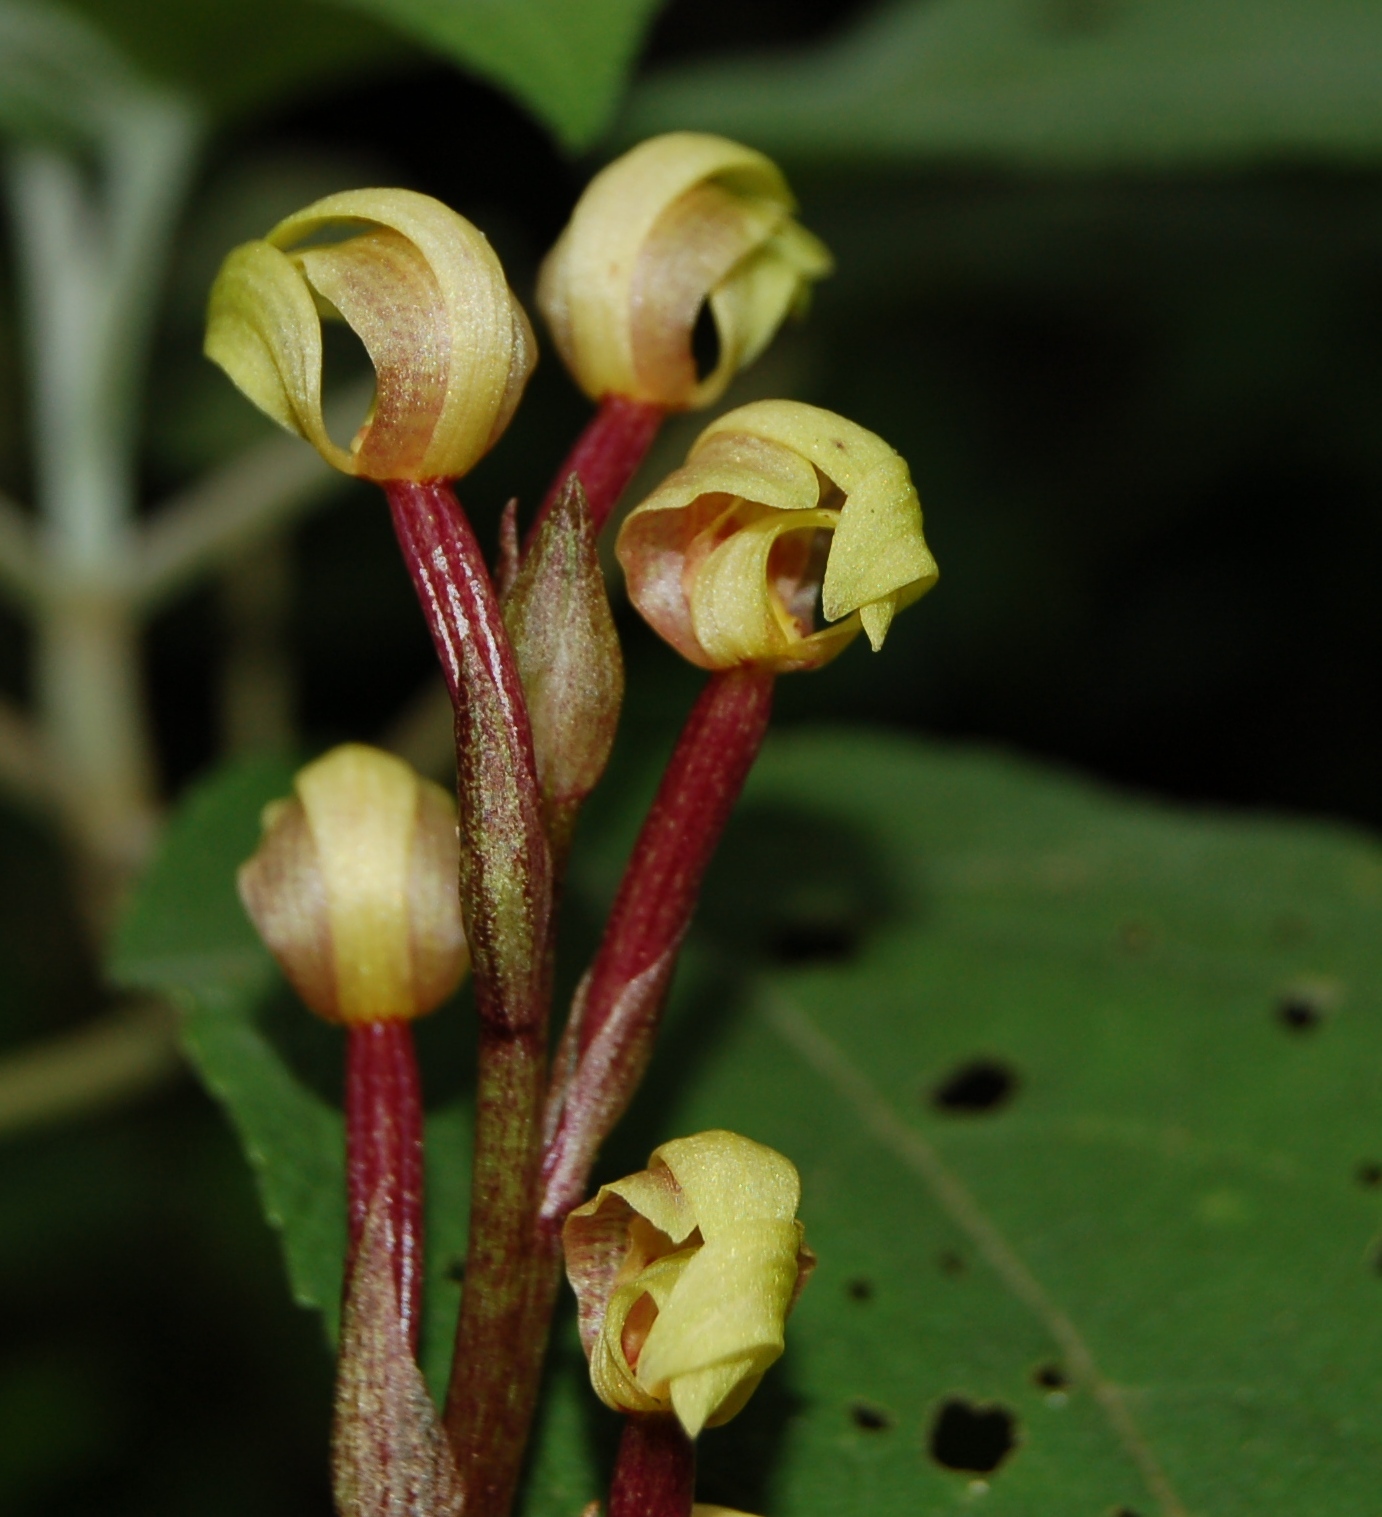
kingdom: Plantae
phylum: Tracheophyta
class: Liliopsida
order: Asparagales
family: Orchidaceae
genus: Govenia
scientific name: Govenia superba
